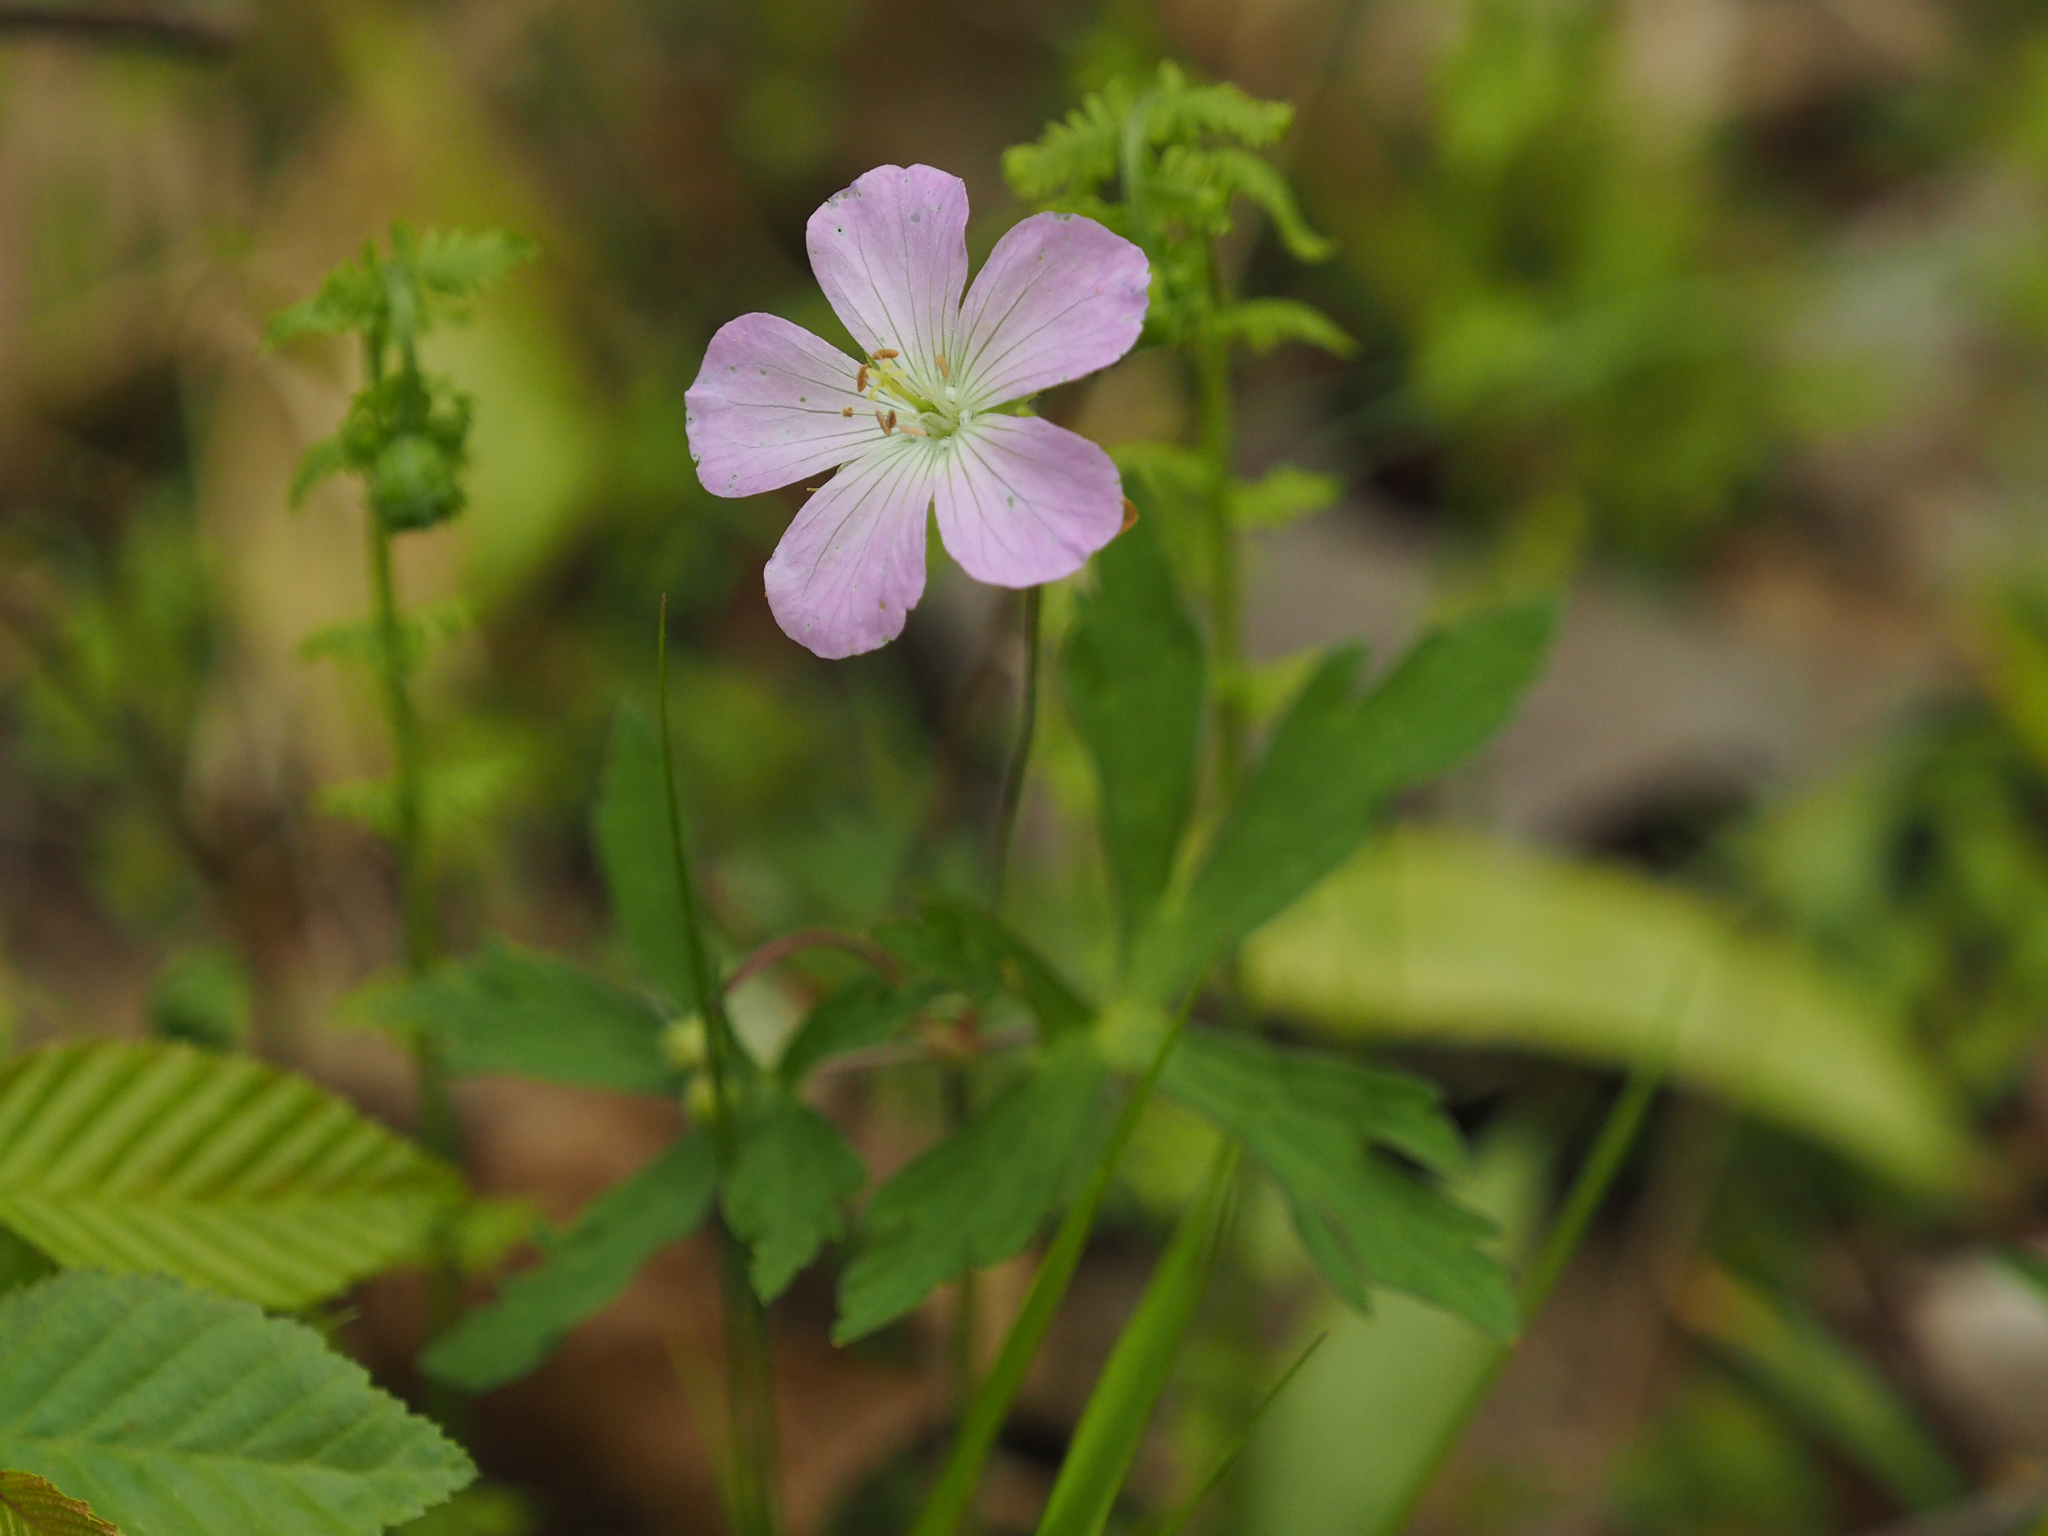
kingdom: Plantae
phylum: Tracheophyta
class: Magnoliopsida
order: Geraniales
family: Geraniaceae
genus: Geranium
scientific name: Geranium maculatum
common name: Spotted geranium
